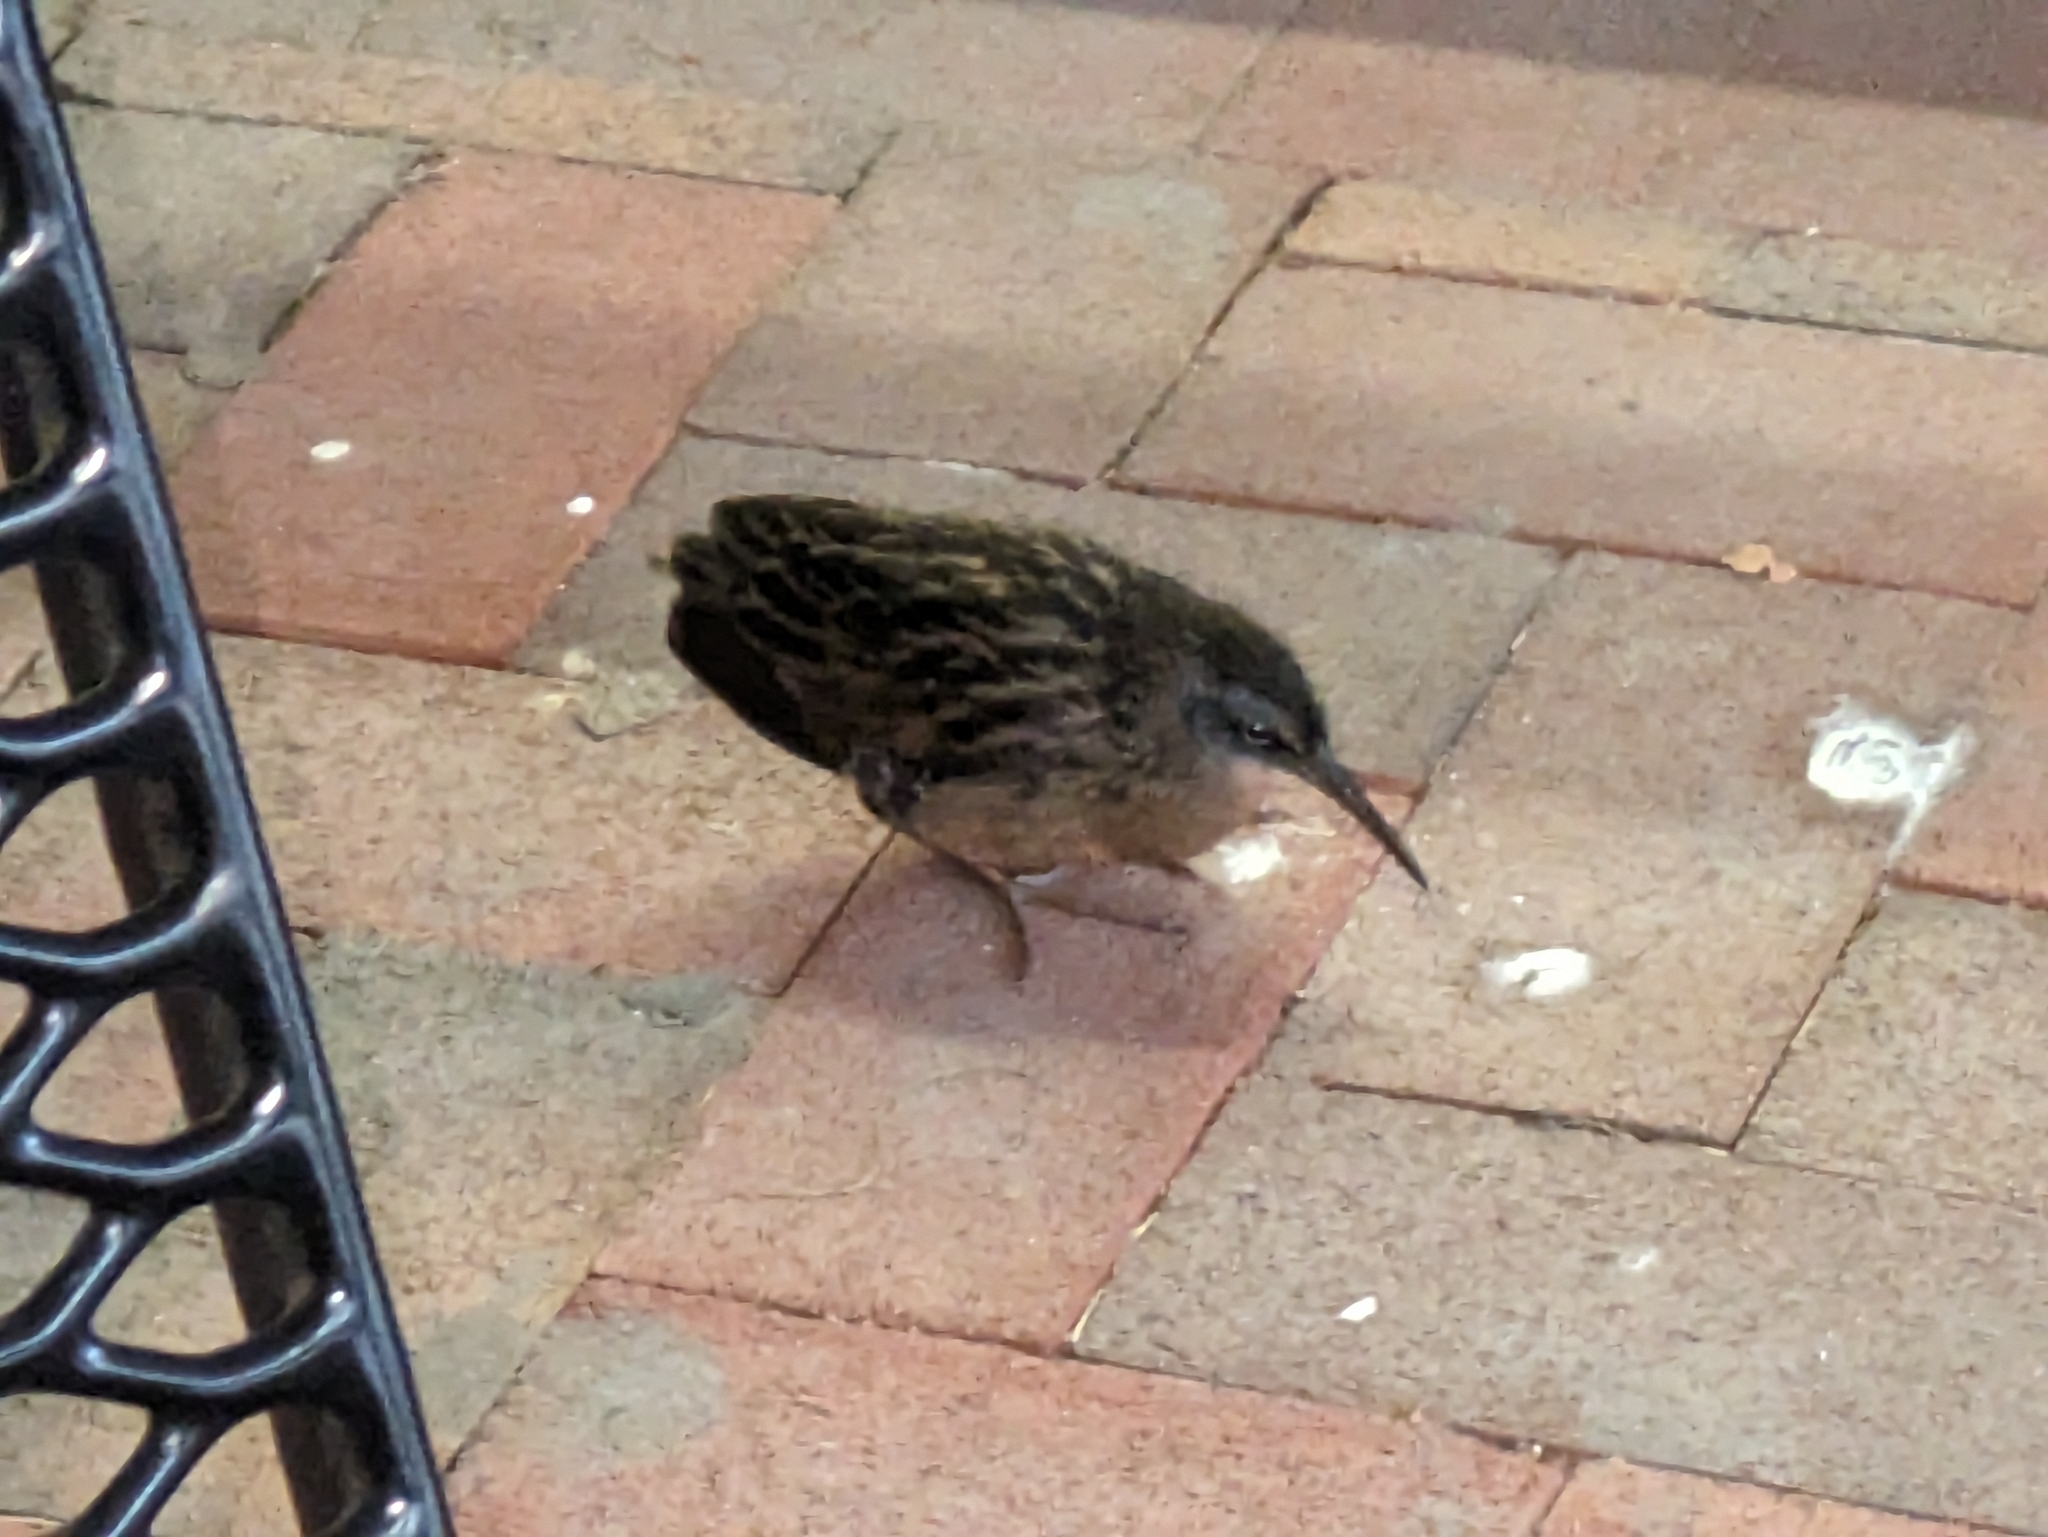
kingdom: Animalia
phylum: Chordata
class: Aves
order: Gruiformes
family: Rallidae
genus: Rallus
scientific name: Rallus limicola
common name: Virginia rail
